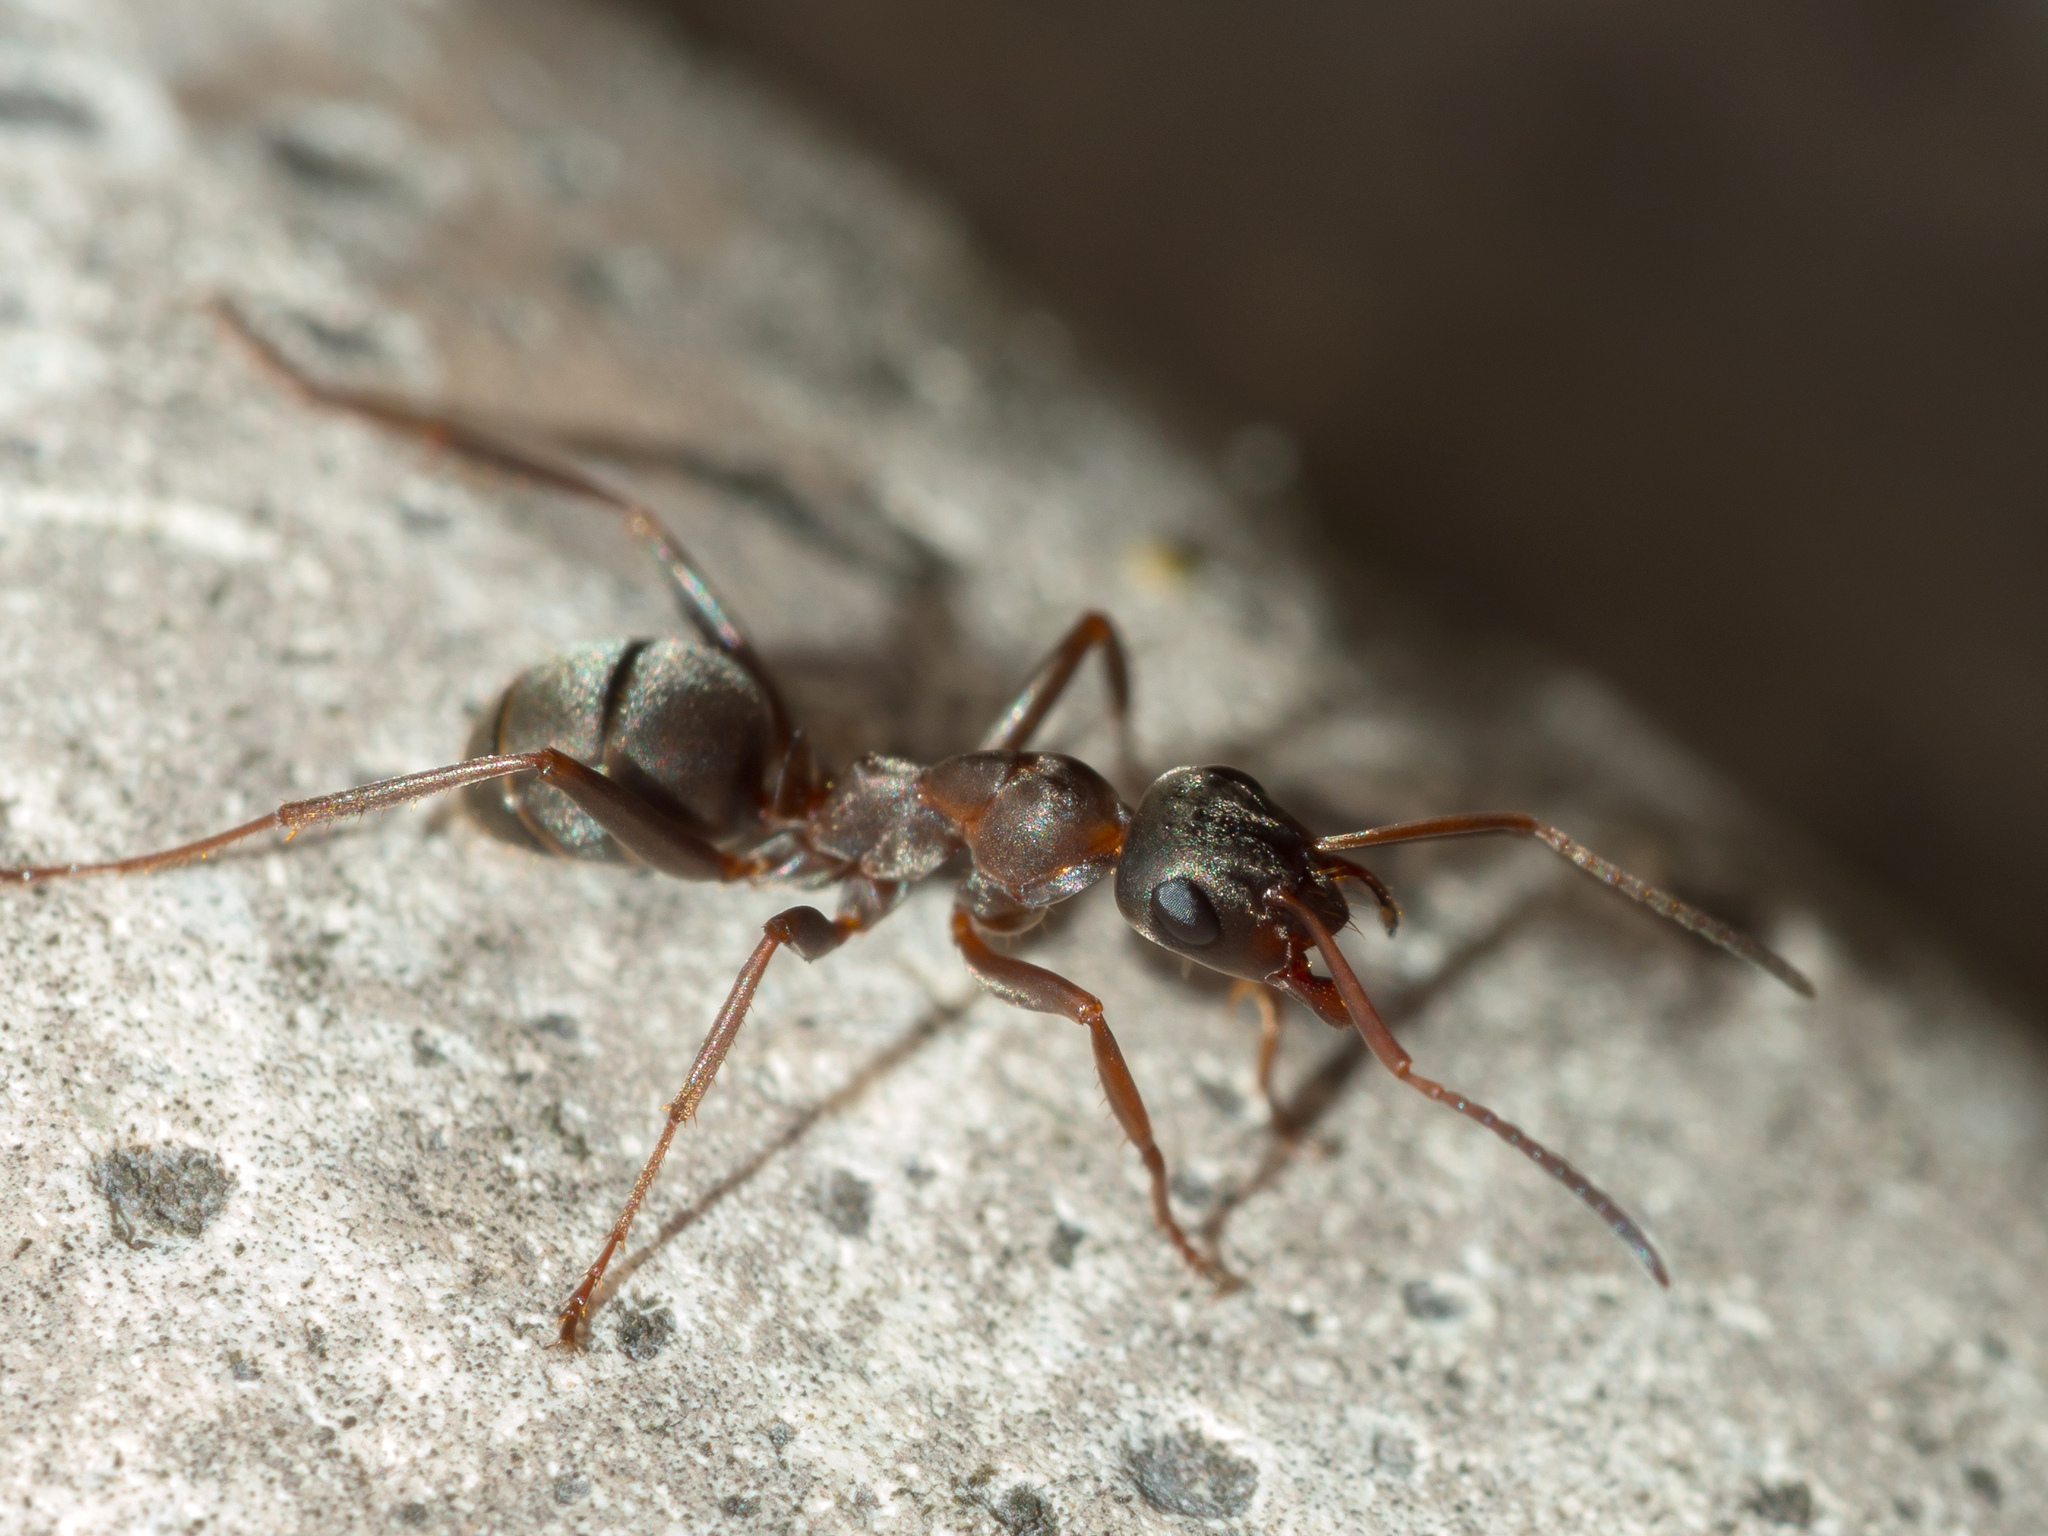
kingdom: Animalia
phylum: Arthropoda
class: Insecta
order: Hymenoptera
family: Formicidae
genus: Formica
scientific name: Formica cunicularia
